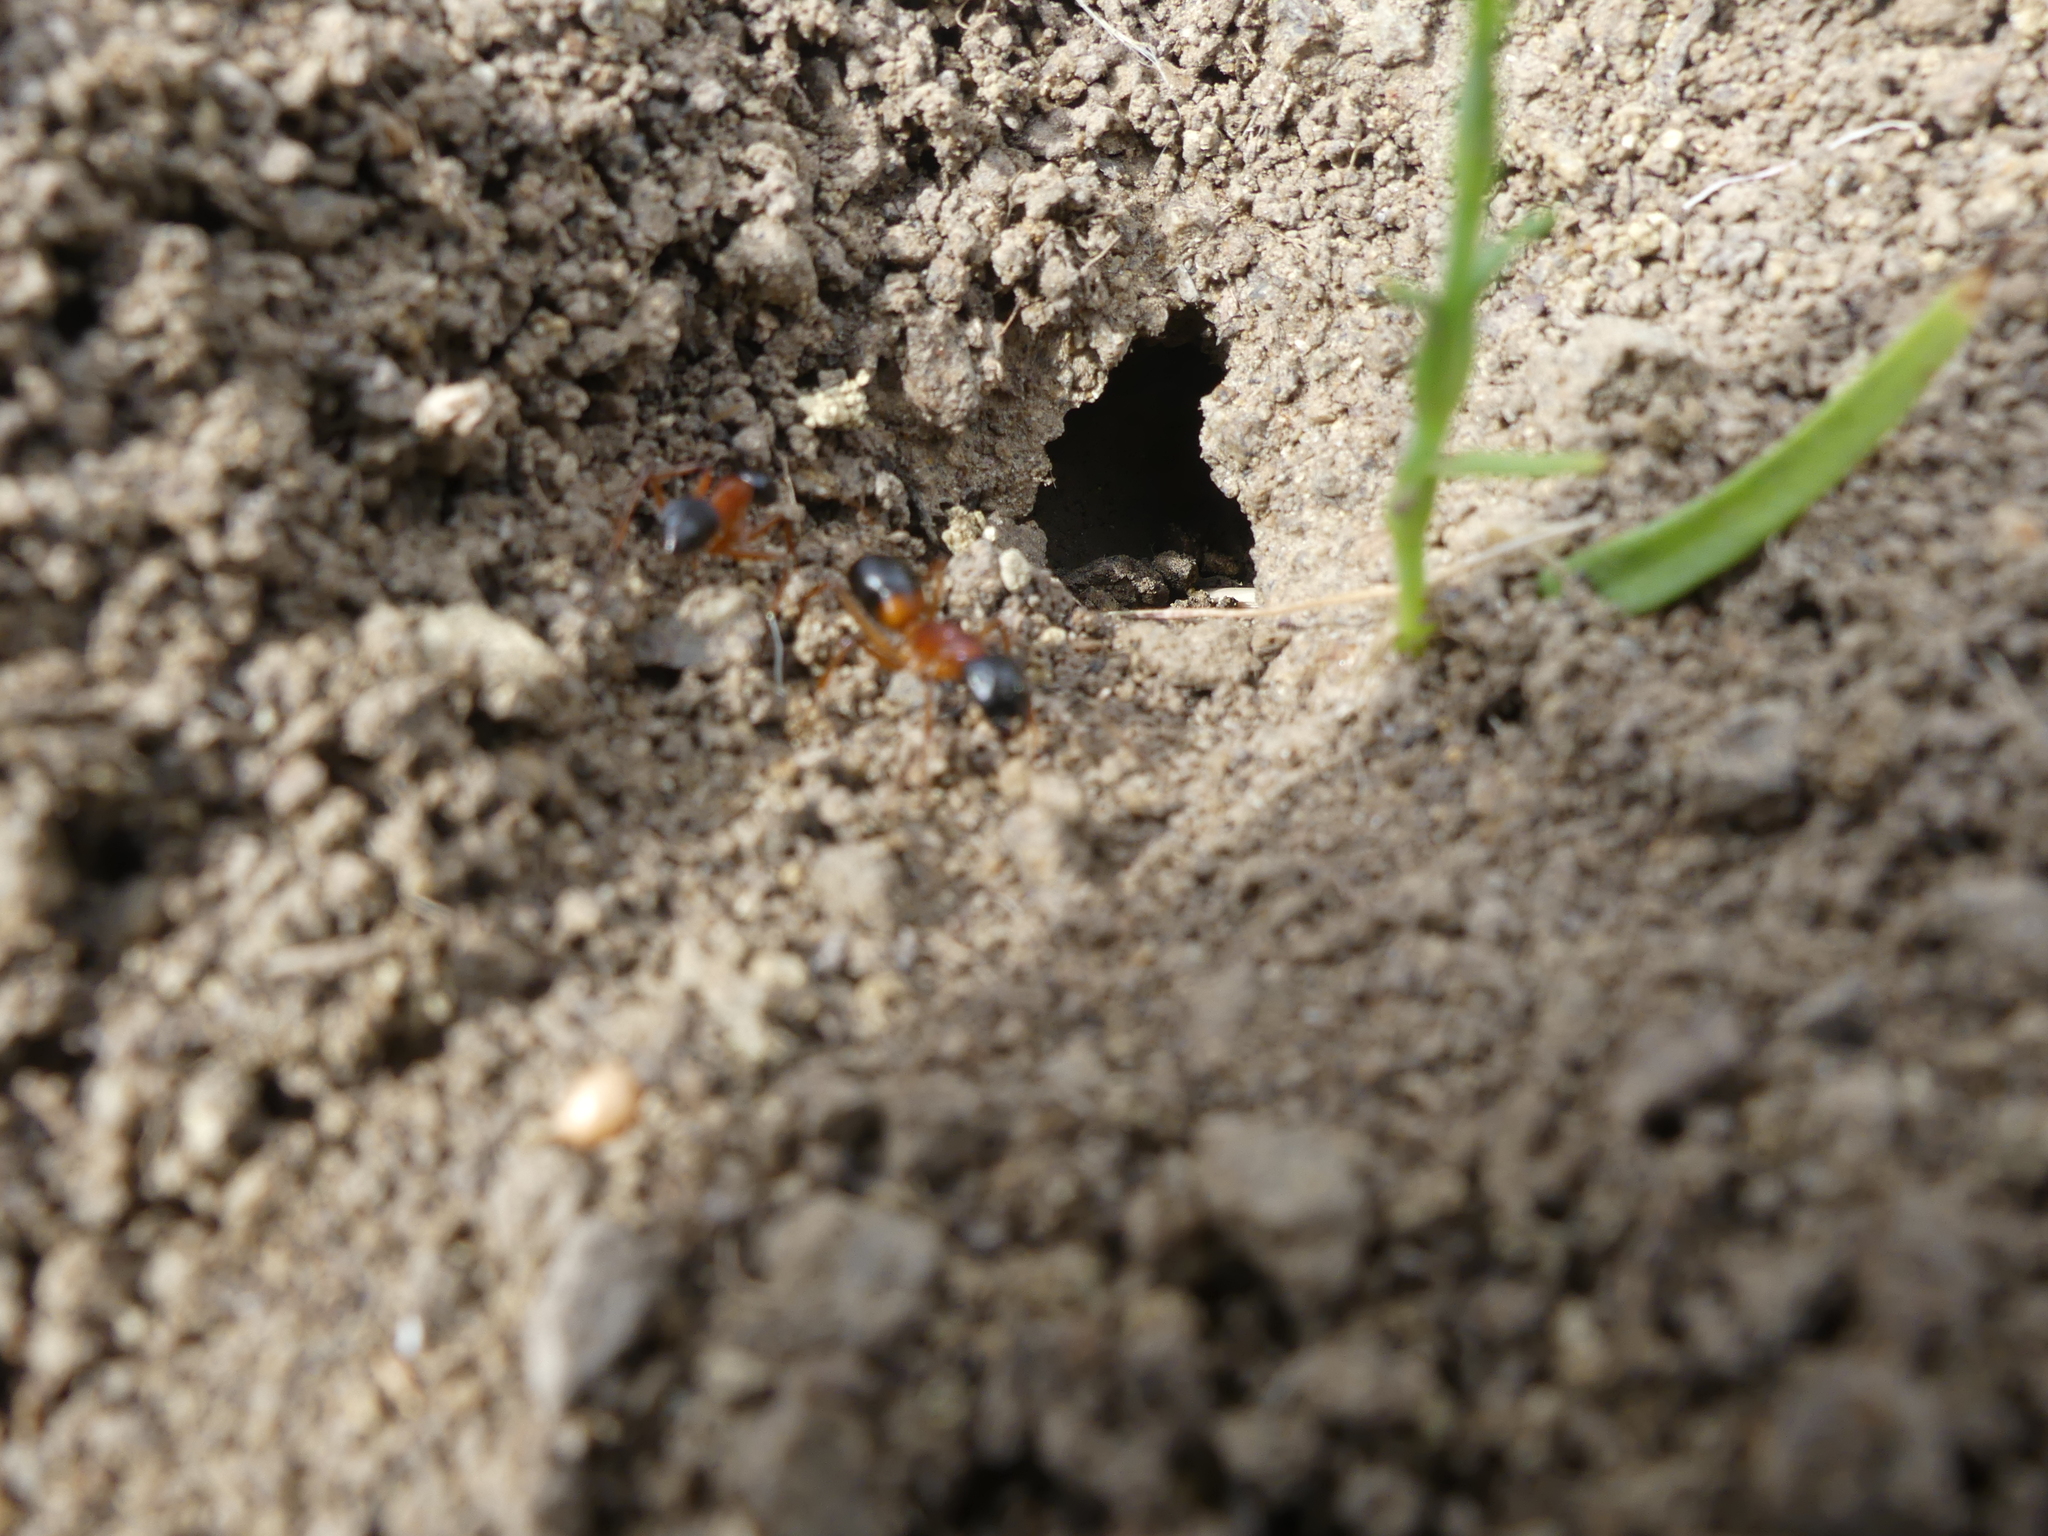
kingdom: Animalia
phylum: Arthropoda
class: Insecta
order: Hymenoptera
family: Formicidae
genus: Camponotus
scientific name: Camponotus consobrinus
